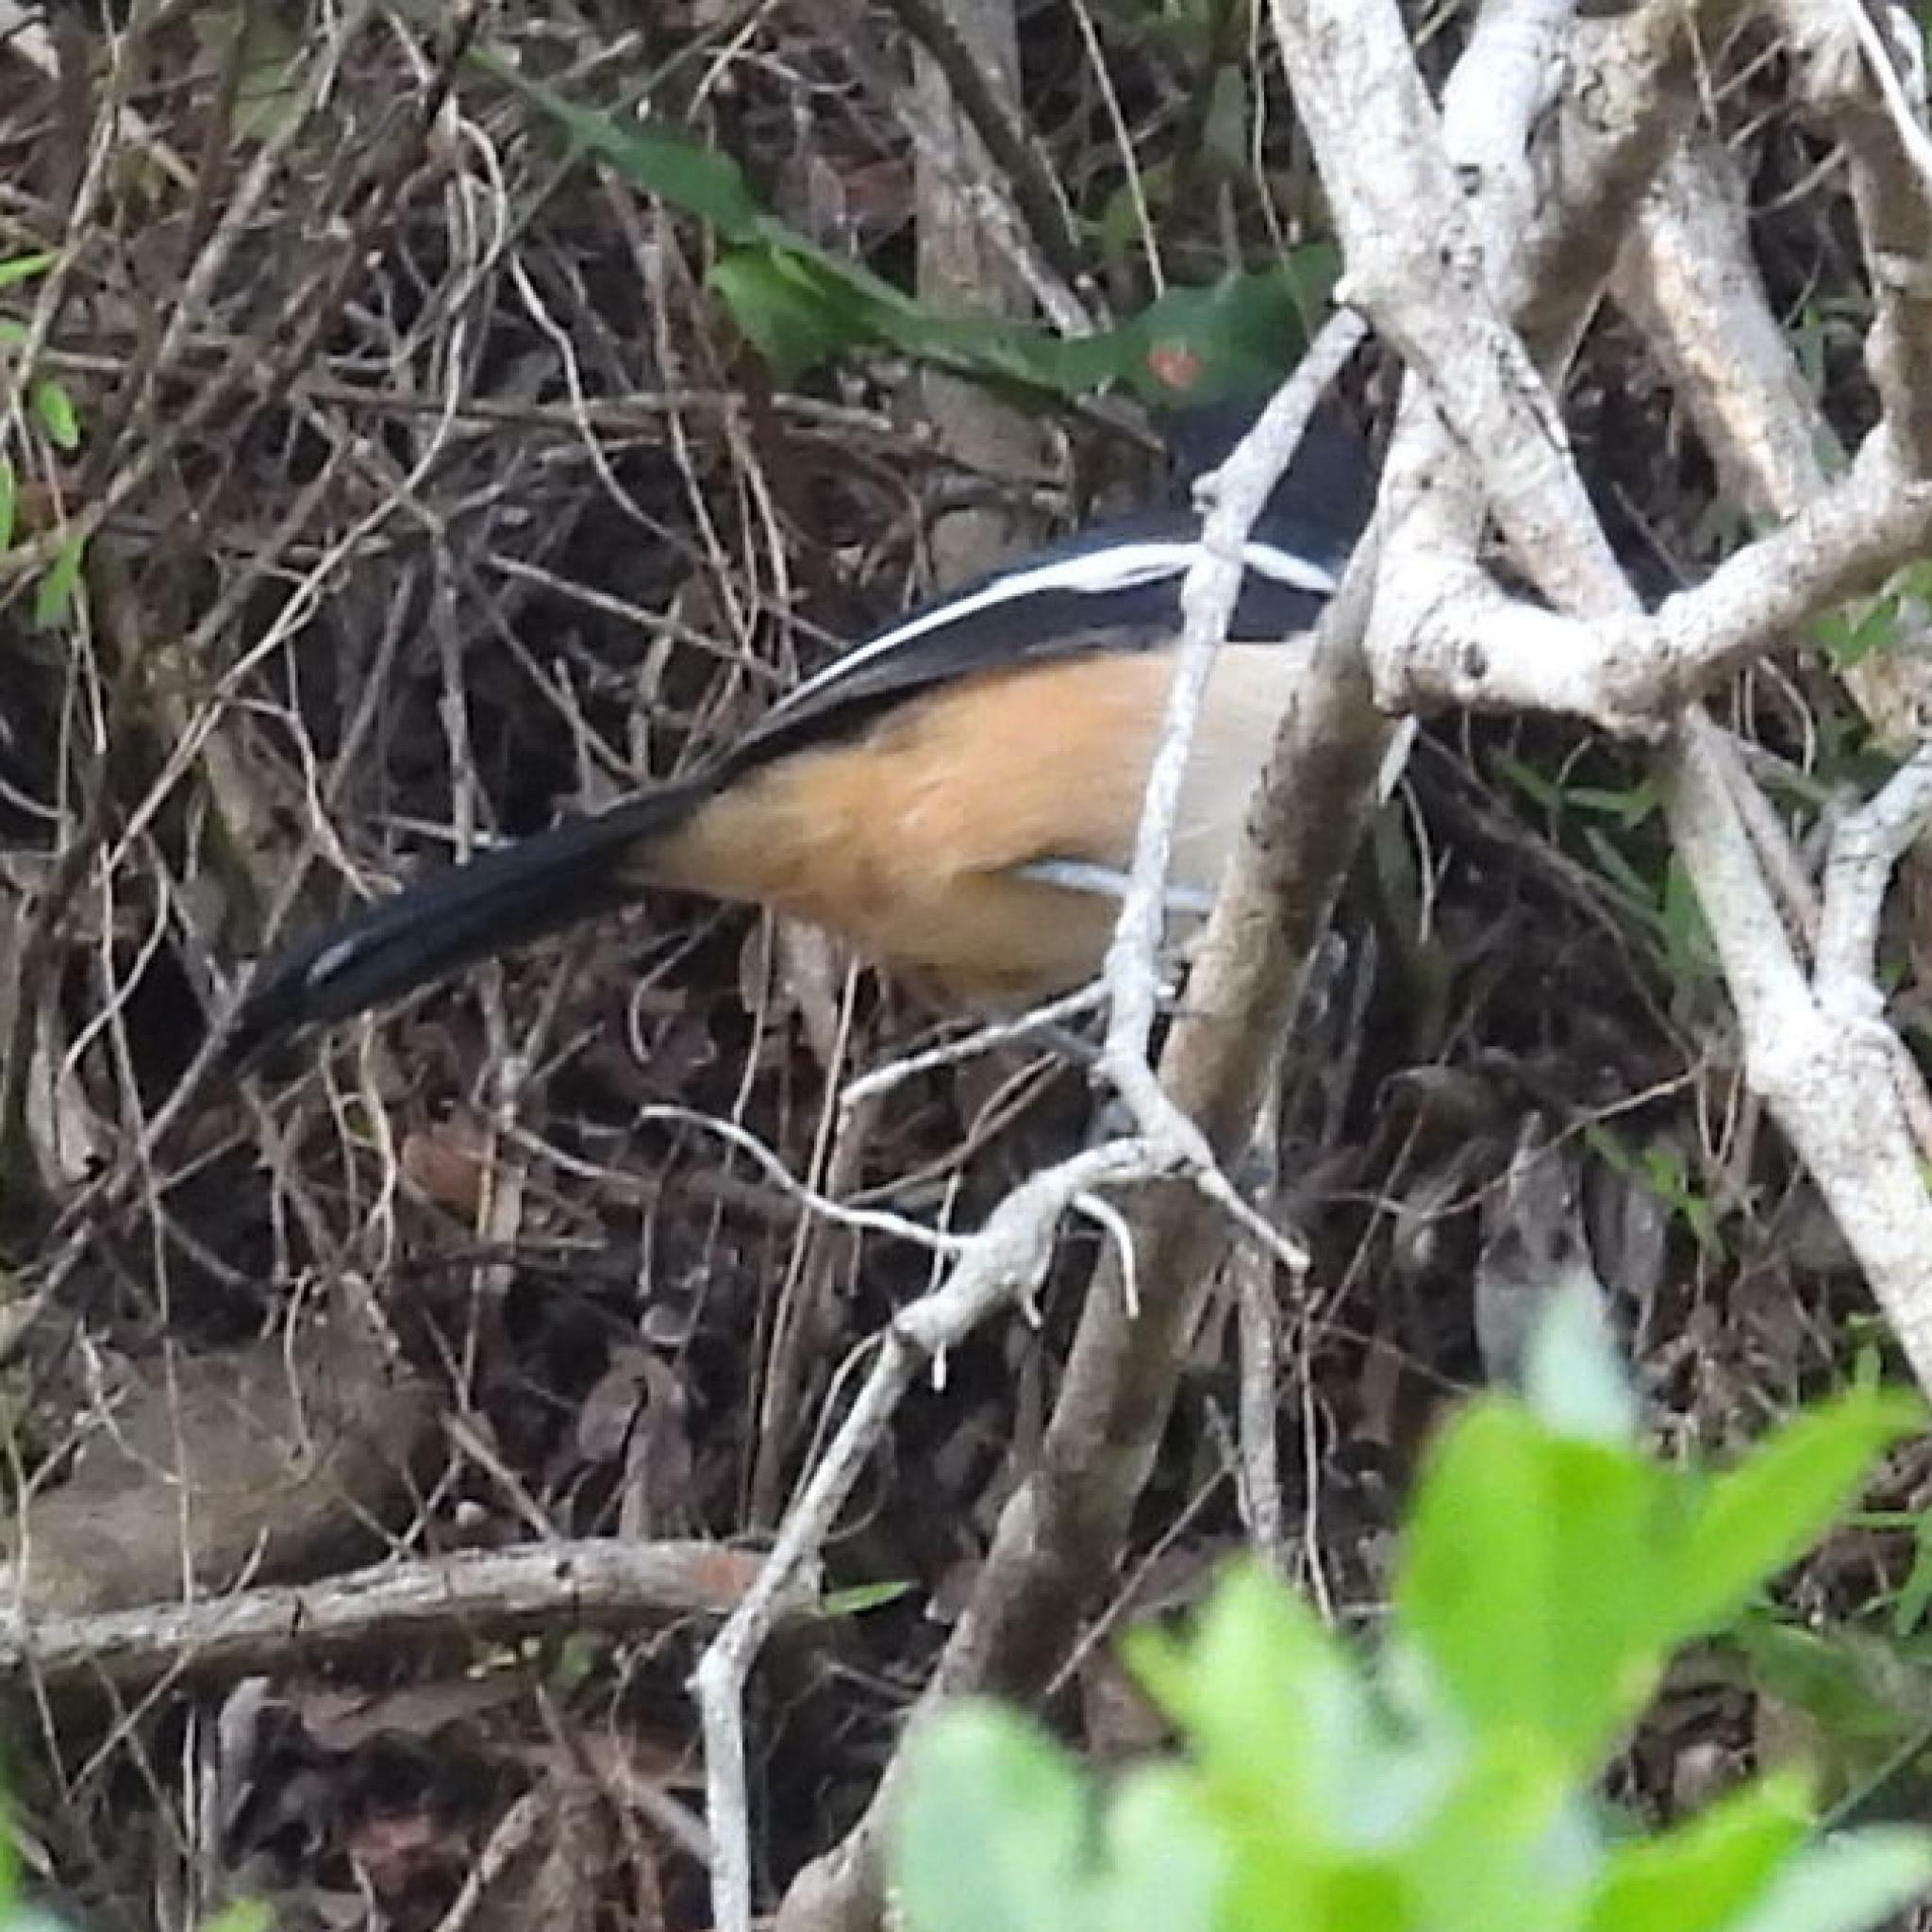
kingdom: Animalia
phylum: Chordata
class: Aves
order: Passeriformes
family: Malaconotidae
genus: Laniarius
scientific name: Laniarius ferrugineus
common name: Southern boubou
